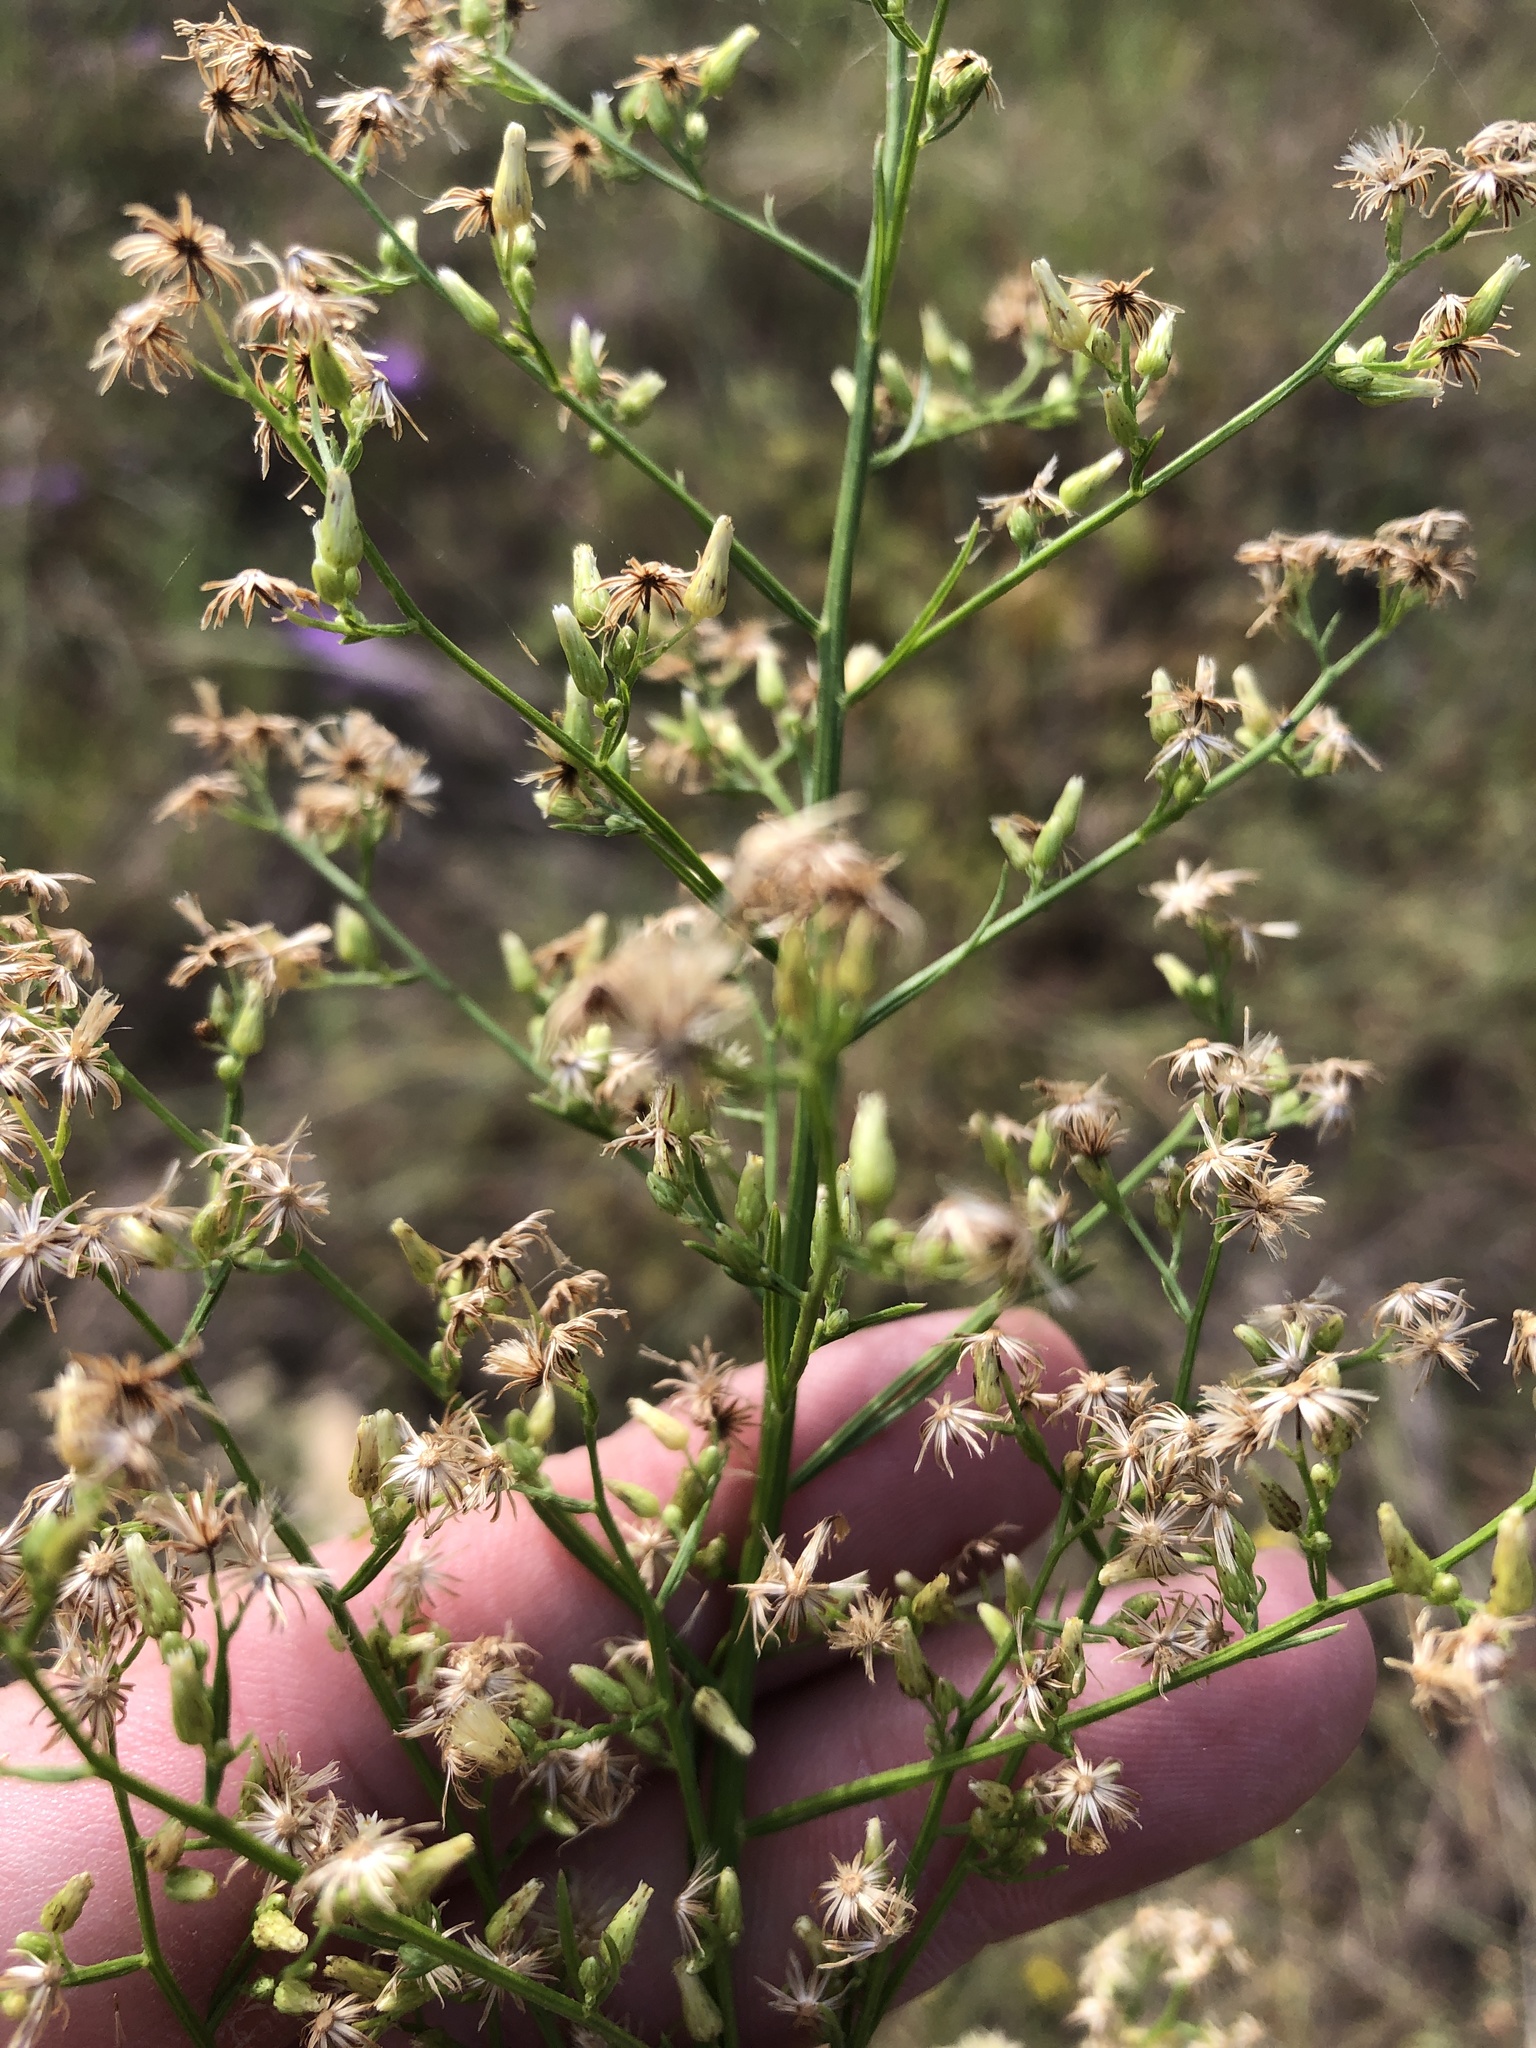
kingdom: Plantae
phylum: Tracheophyta
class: Magnoliopsida
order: Asterales
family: Asteraceae
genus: Erigeron
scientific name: Erigeron canadensis
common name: Canadian fleabane
